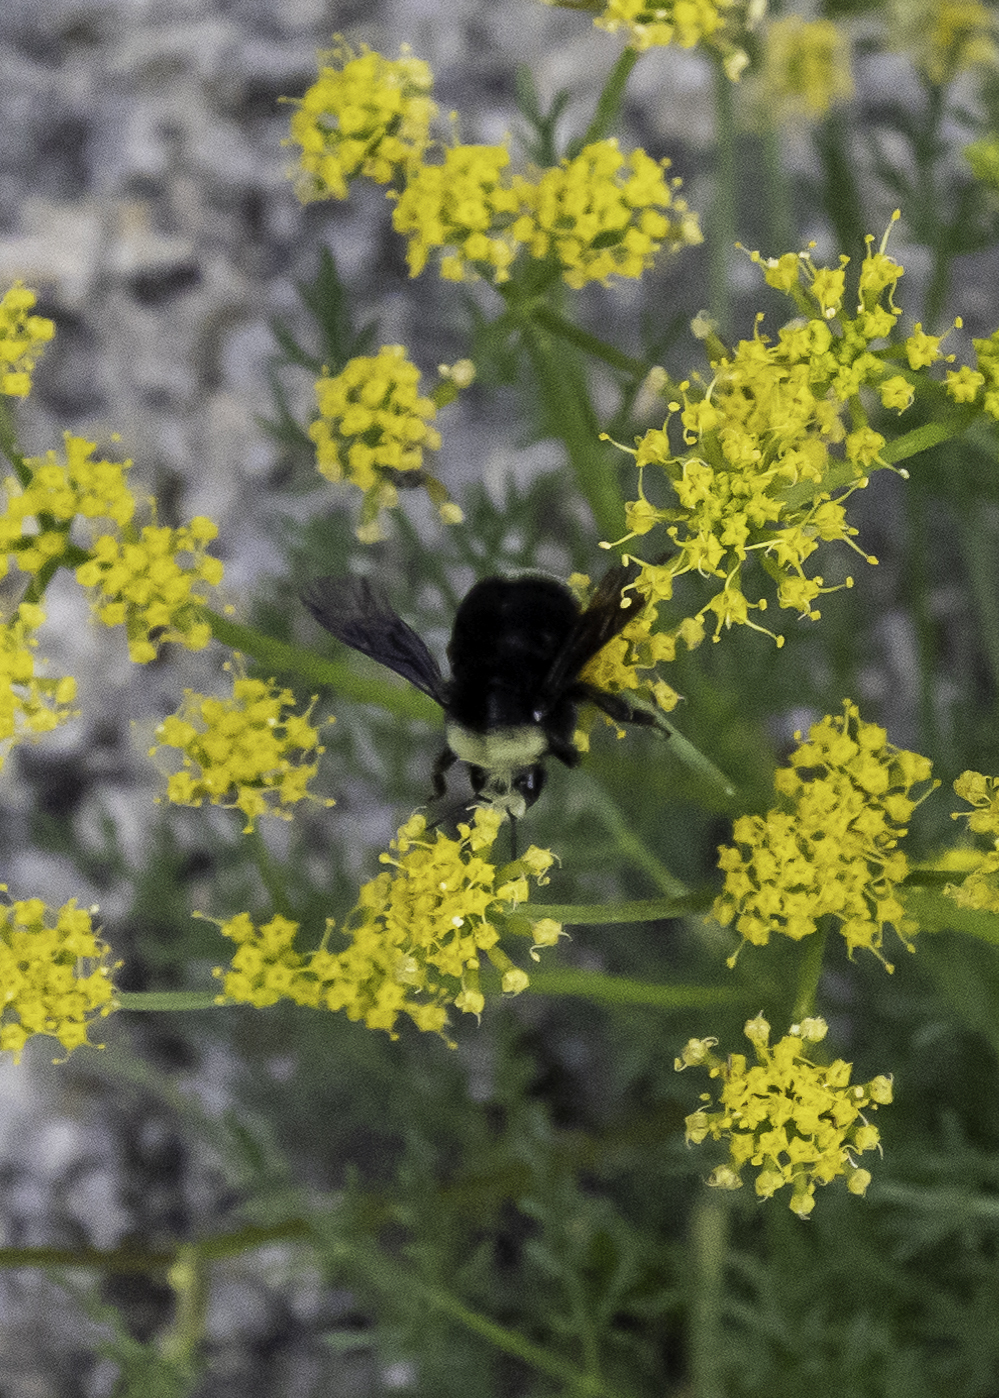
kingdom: Animalia
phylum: Arthropoda
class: Insecta
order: Hymenoptera
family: Apidae
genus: Bombus
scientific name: Bombus vosnesenskii
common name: Vosnesensky bumble bee
